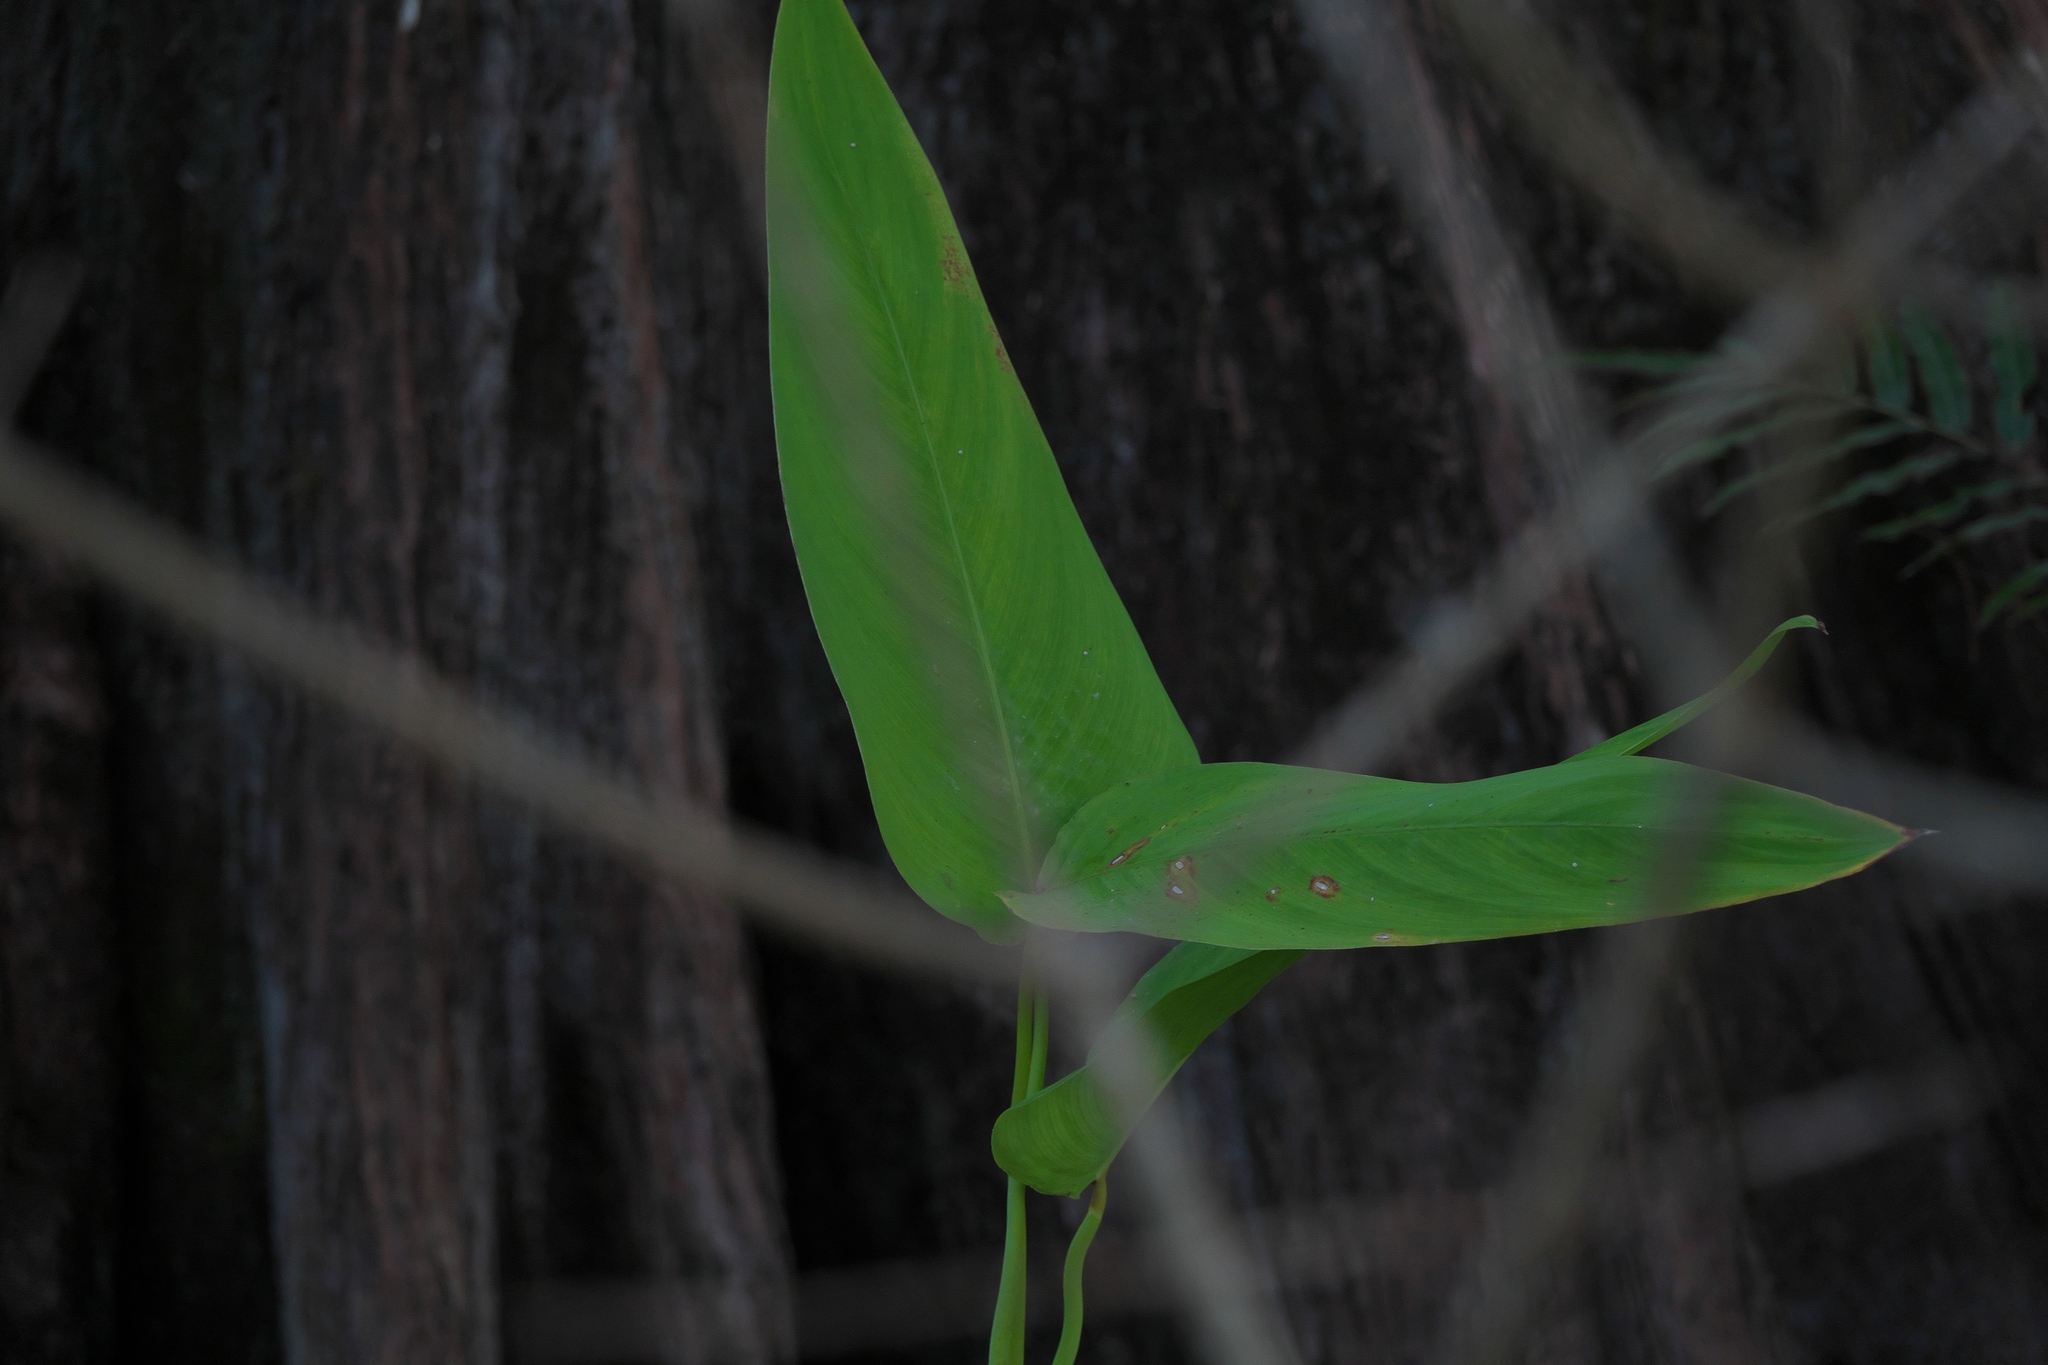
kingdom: Plantae
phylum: Tracheophyta
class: Liliopsida
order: Zingiberales
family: Marantaceae
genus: Thalia
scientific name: Thalia geniculata
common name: Arrowroot
